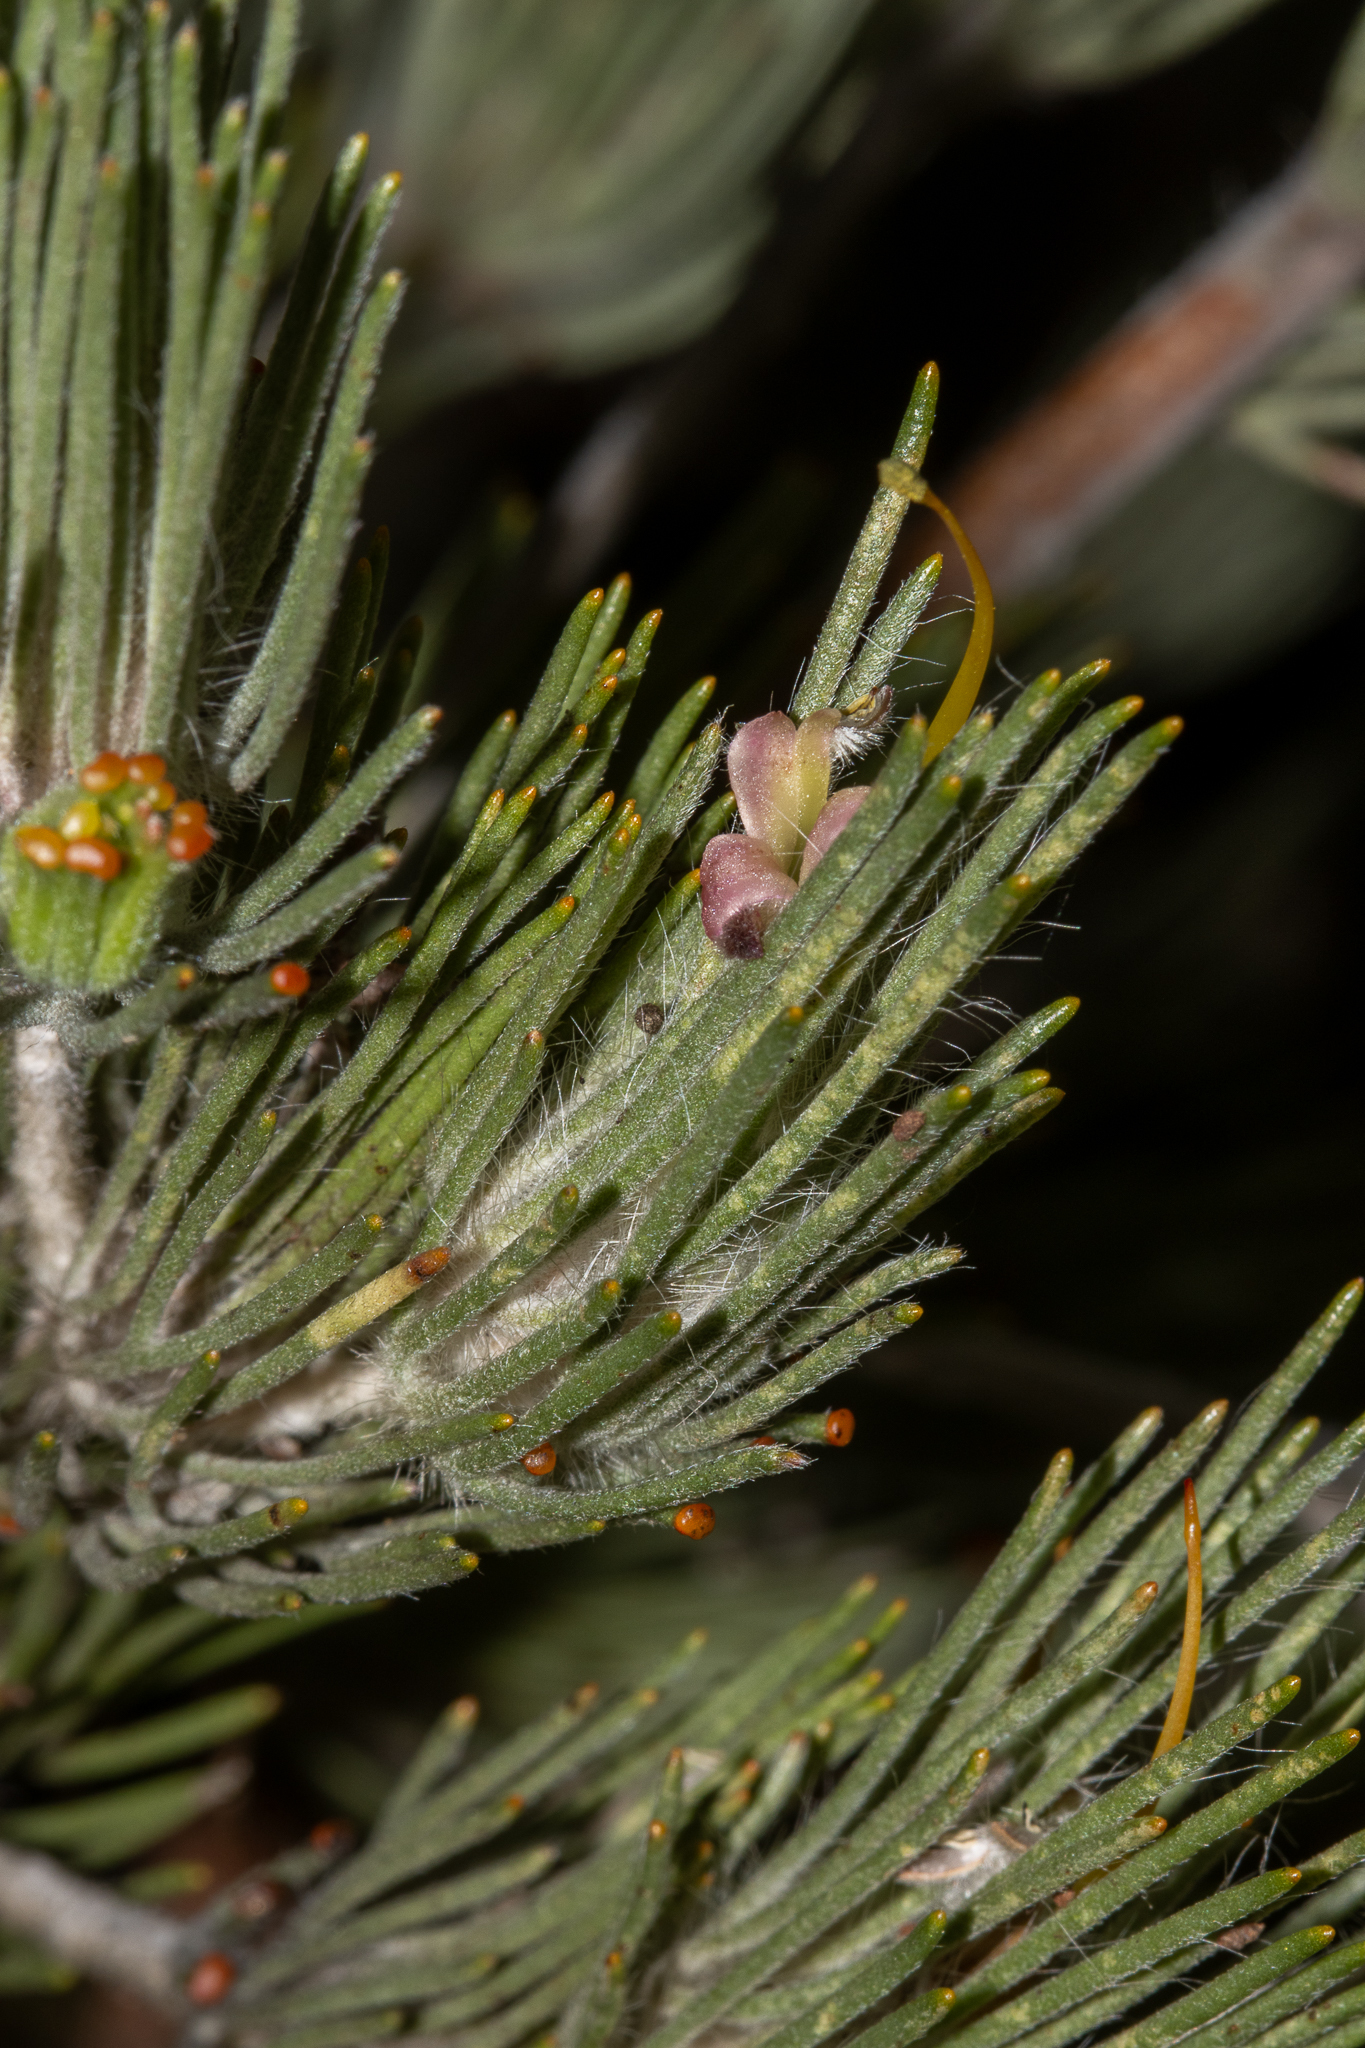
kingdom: Plantae
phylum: Tracheophyta
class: Magnoliopsida
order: Proteales
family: Proteaceae
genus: Adenanthos
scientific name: Adenanthos cygnorum
